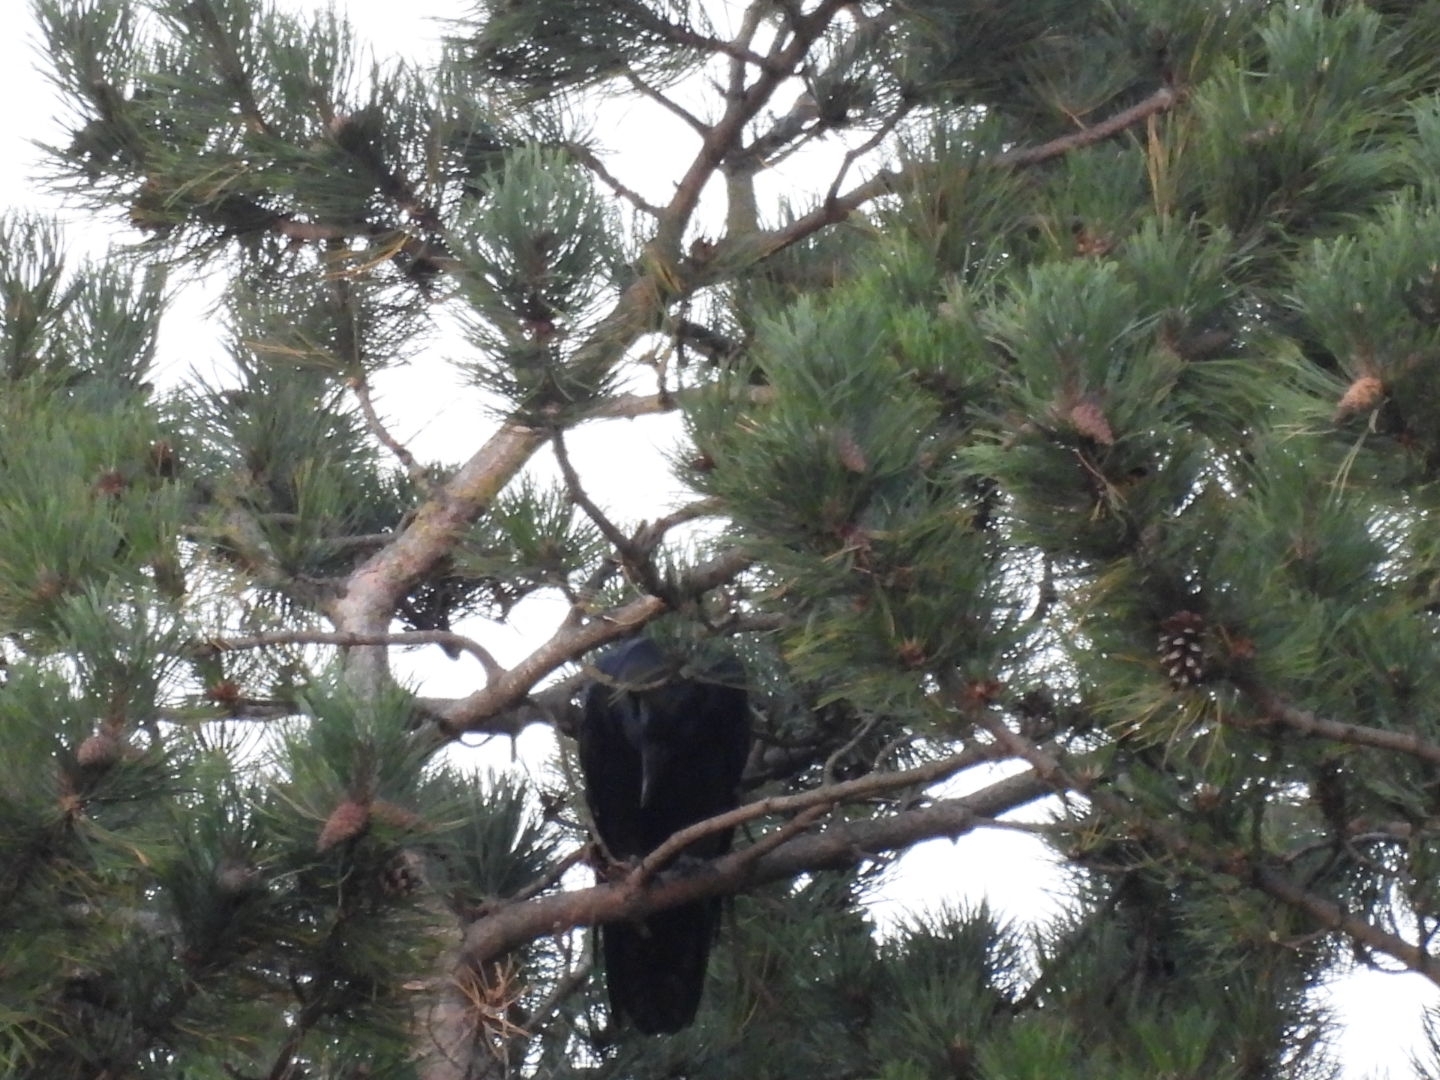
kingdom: Animalia
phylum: Chordata
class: Aves
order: Passeriformes
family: Corvidae
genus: Corvus
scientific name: Corvus corax
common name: Common raven
